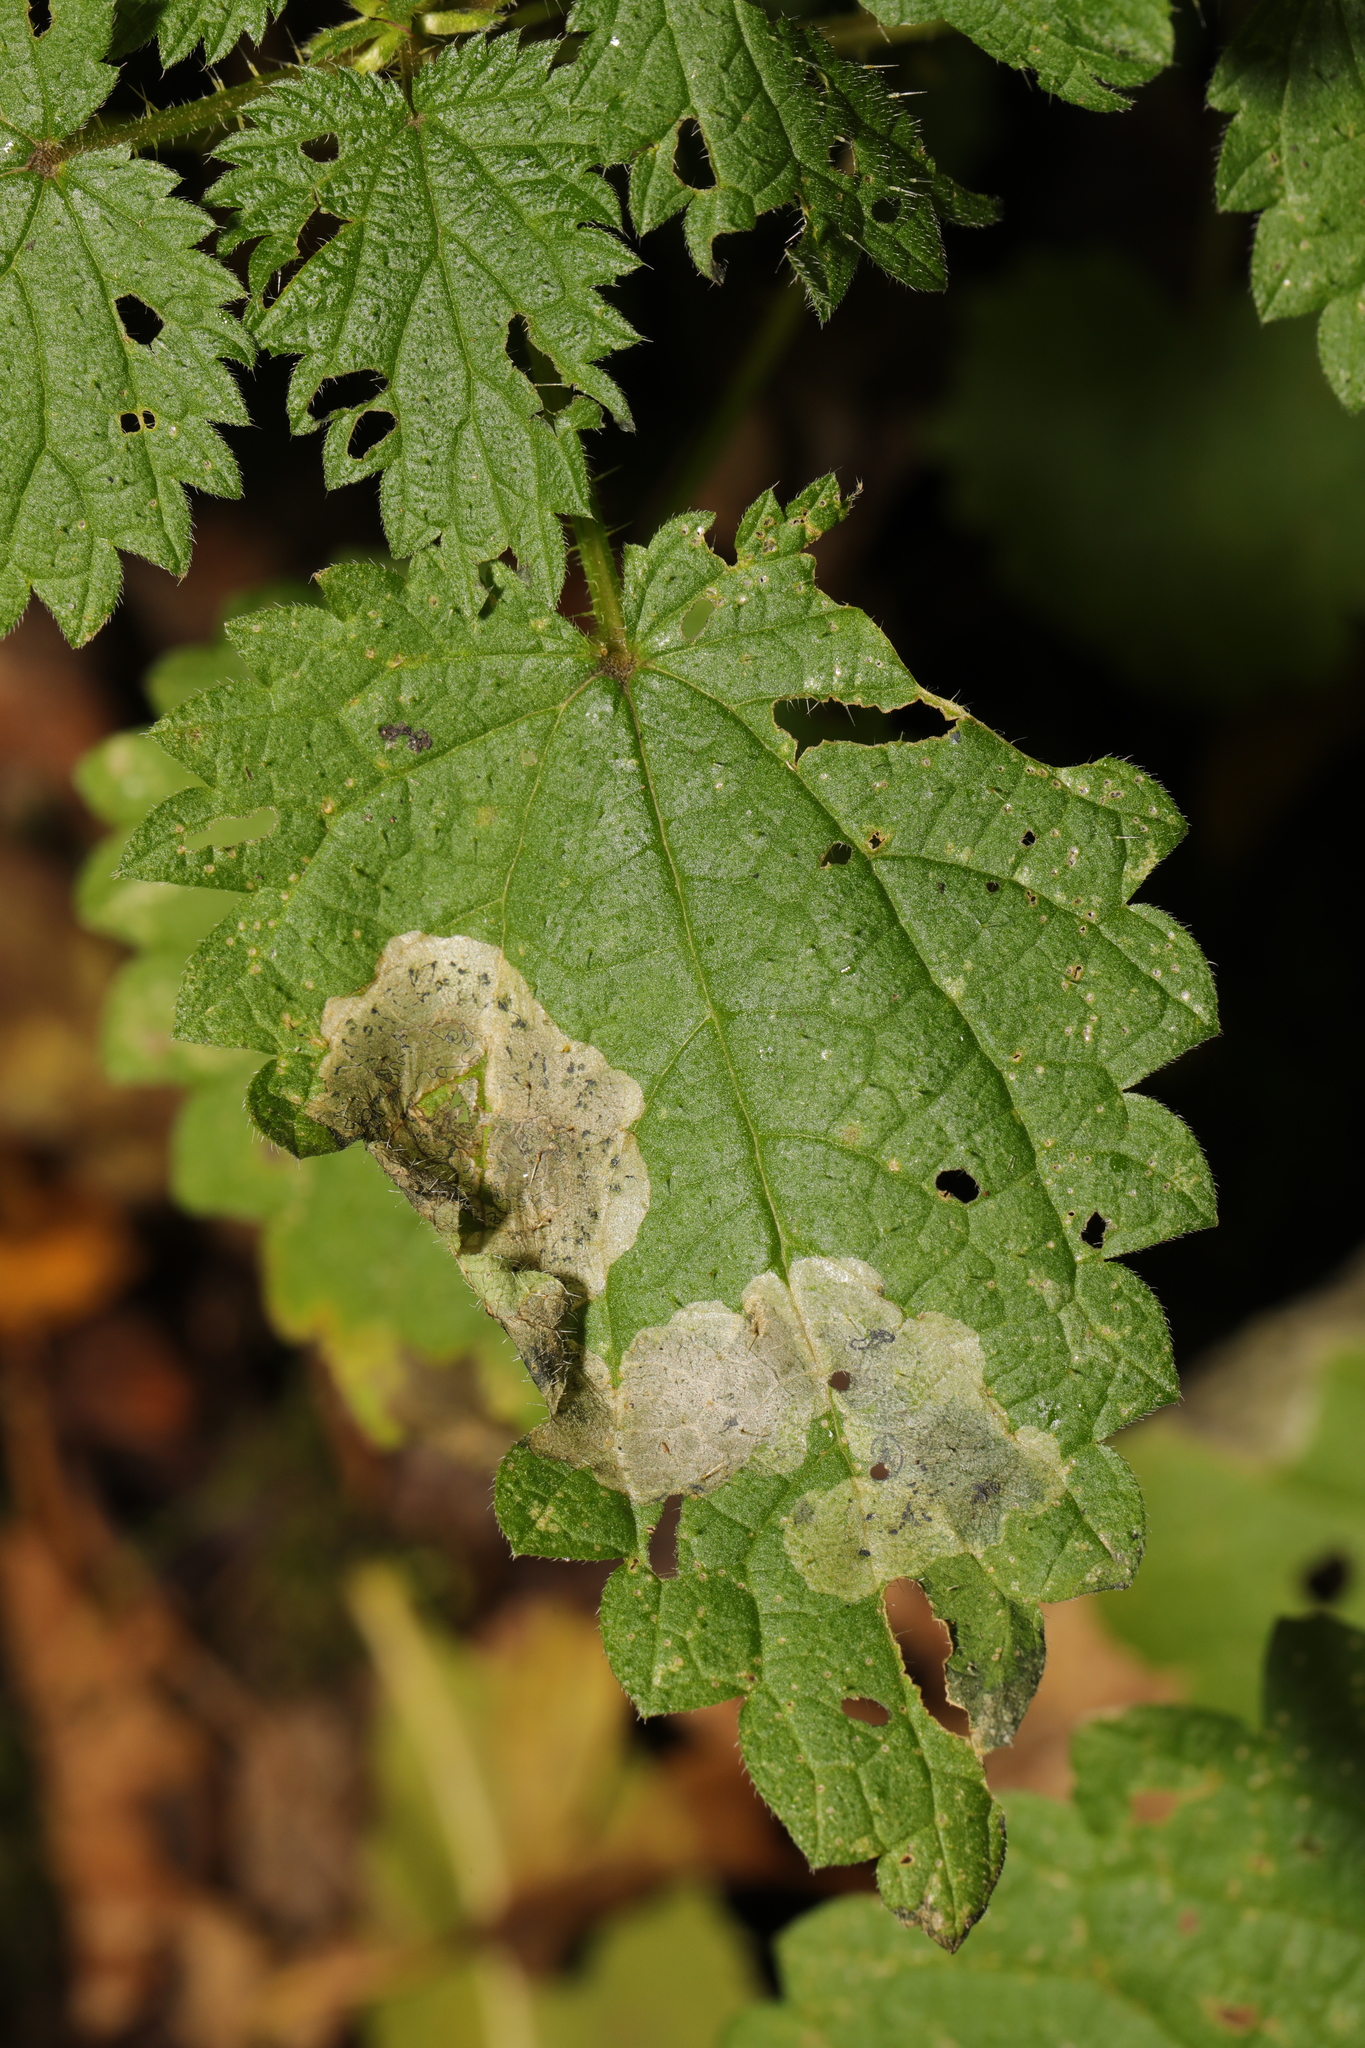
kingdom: Animalia
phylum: Arthropoda
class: Insecta
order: Diptera
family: Agromyzidae
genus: Agromyza
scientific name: Agromyza anthracina
